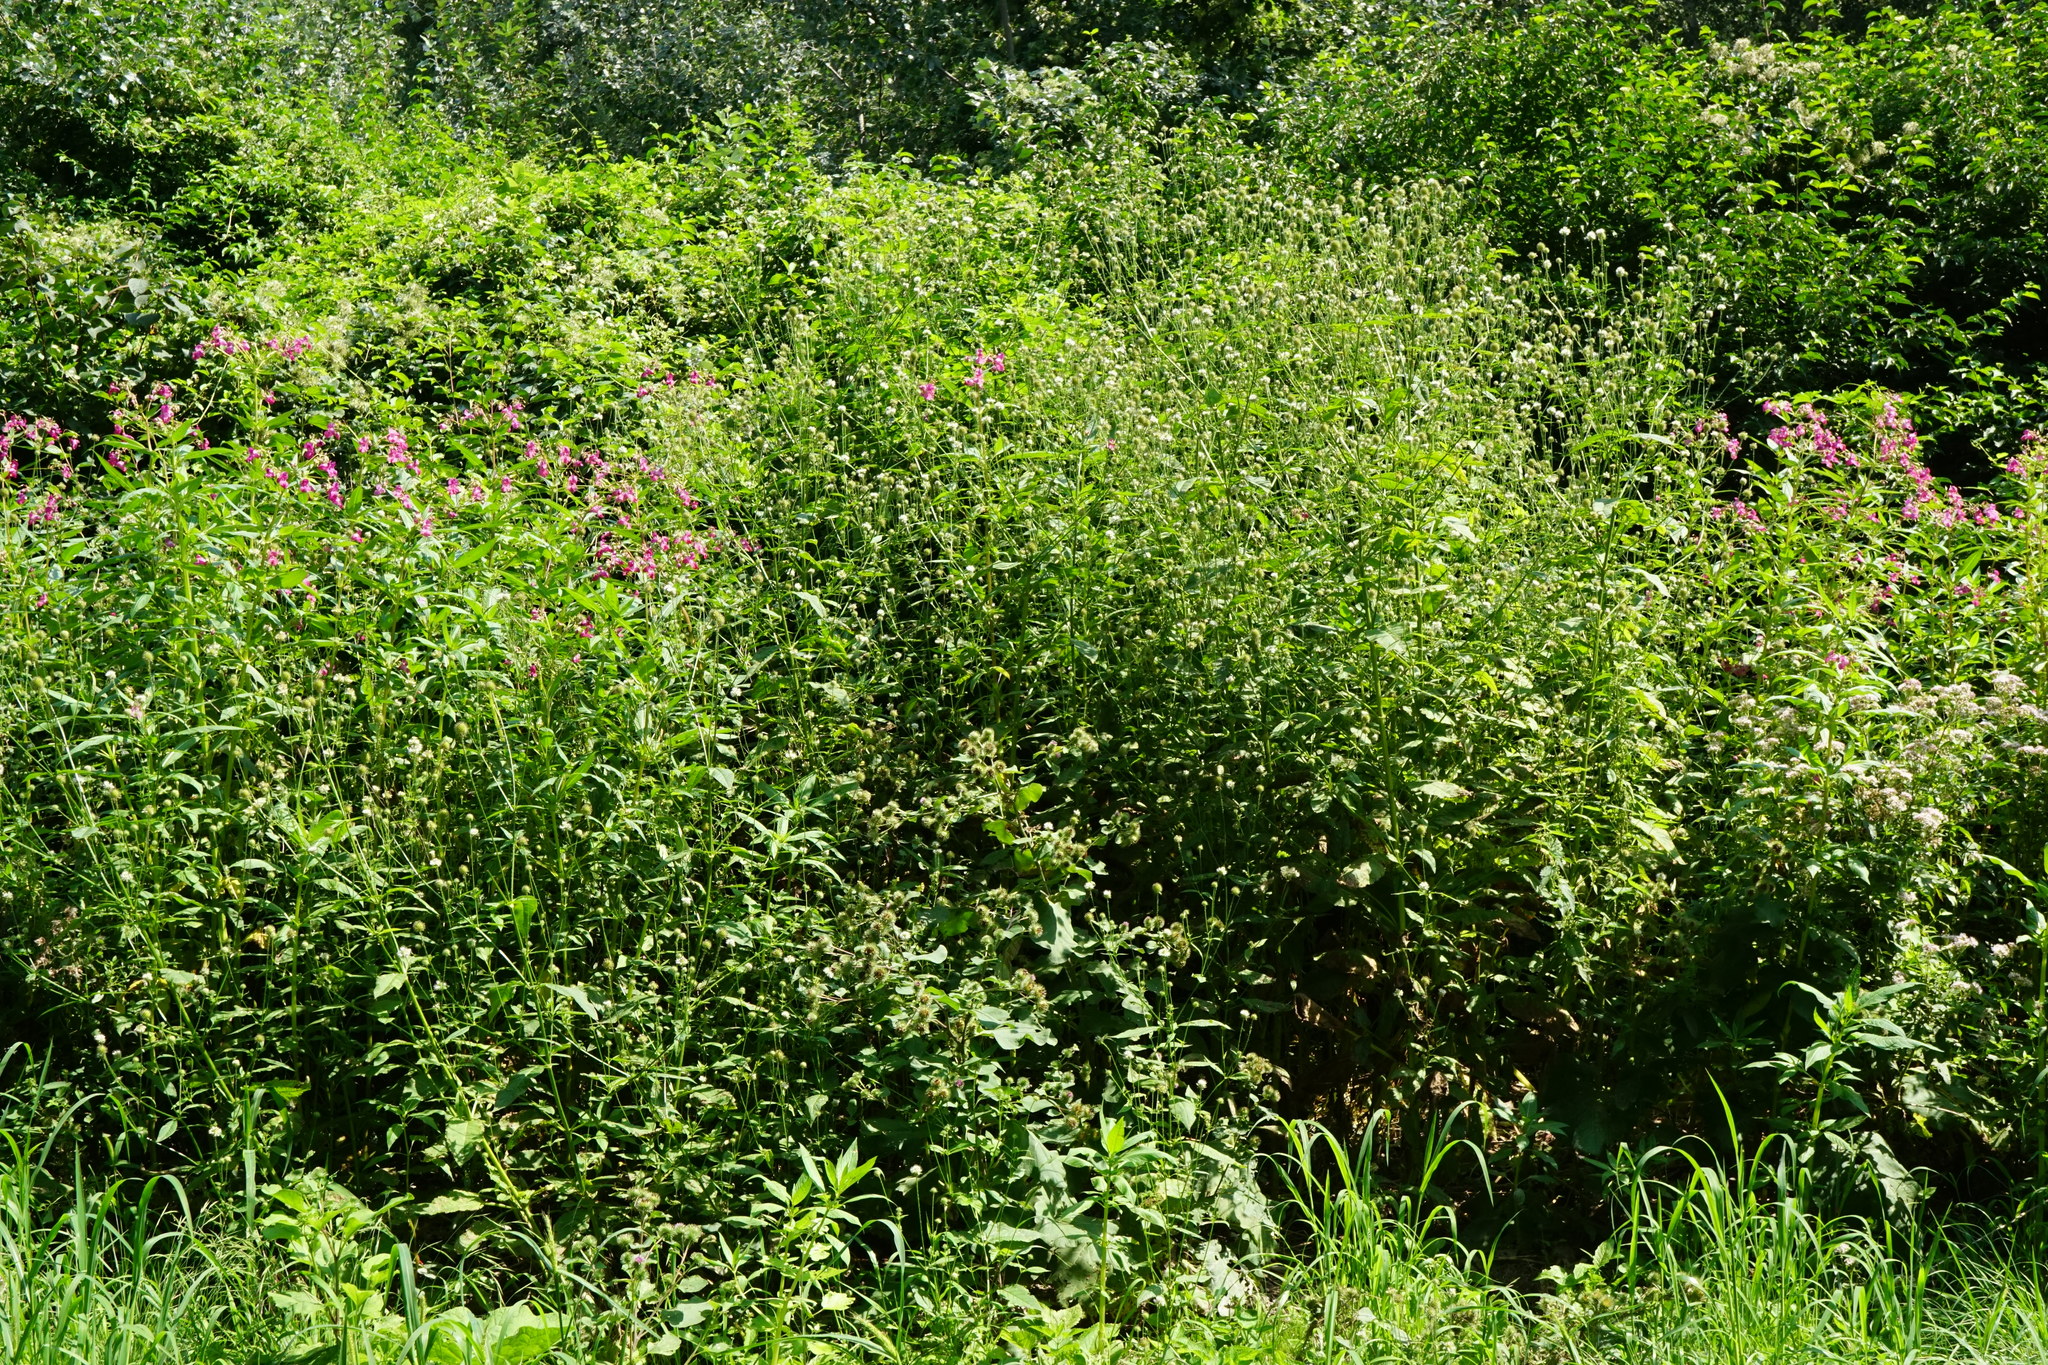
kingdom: Plantae
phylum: Tracheophyta
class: Magnoliopsida
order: Dipsacales
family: Caprifoliaceae
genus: Dipsacus
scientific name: Dipsacus pilosus
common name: Small teasel
